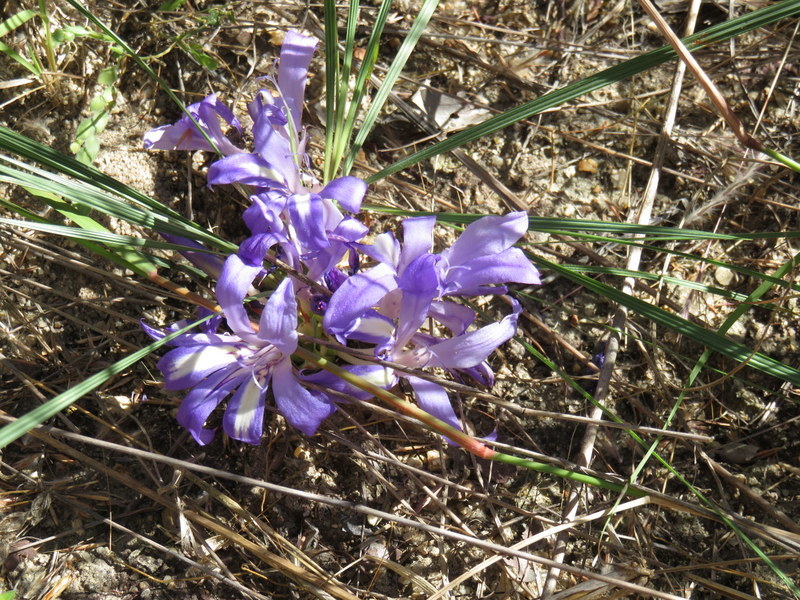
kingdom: Plantae
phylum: Tracheophyta
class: Liliopsida
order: Asparagales
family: Iridaceae
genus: Babiana
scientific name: Babiana bainesii
